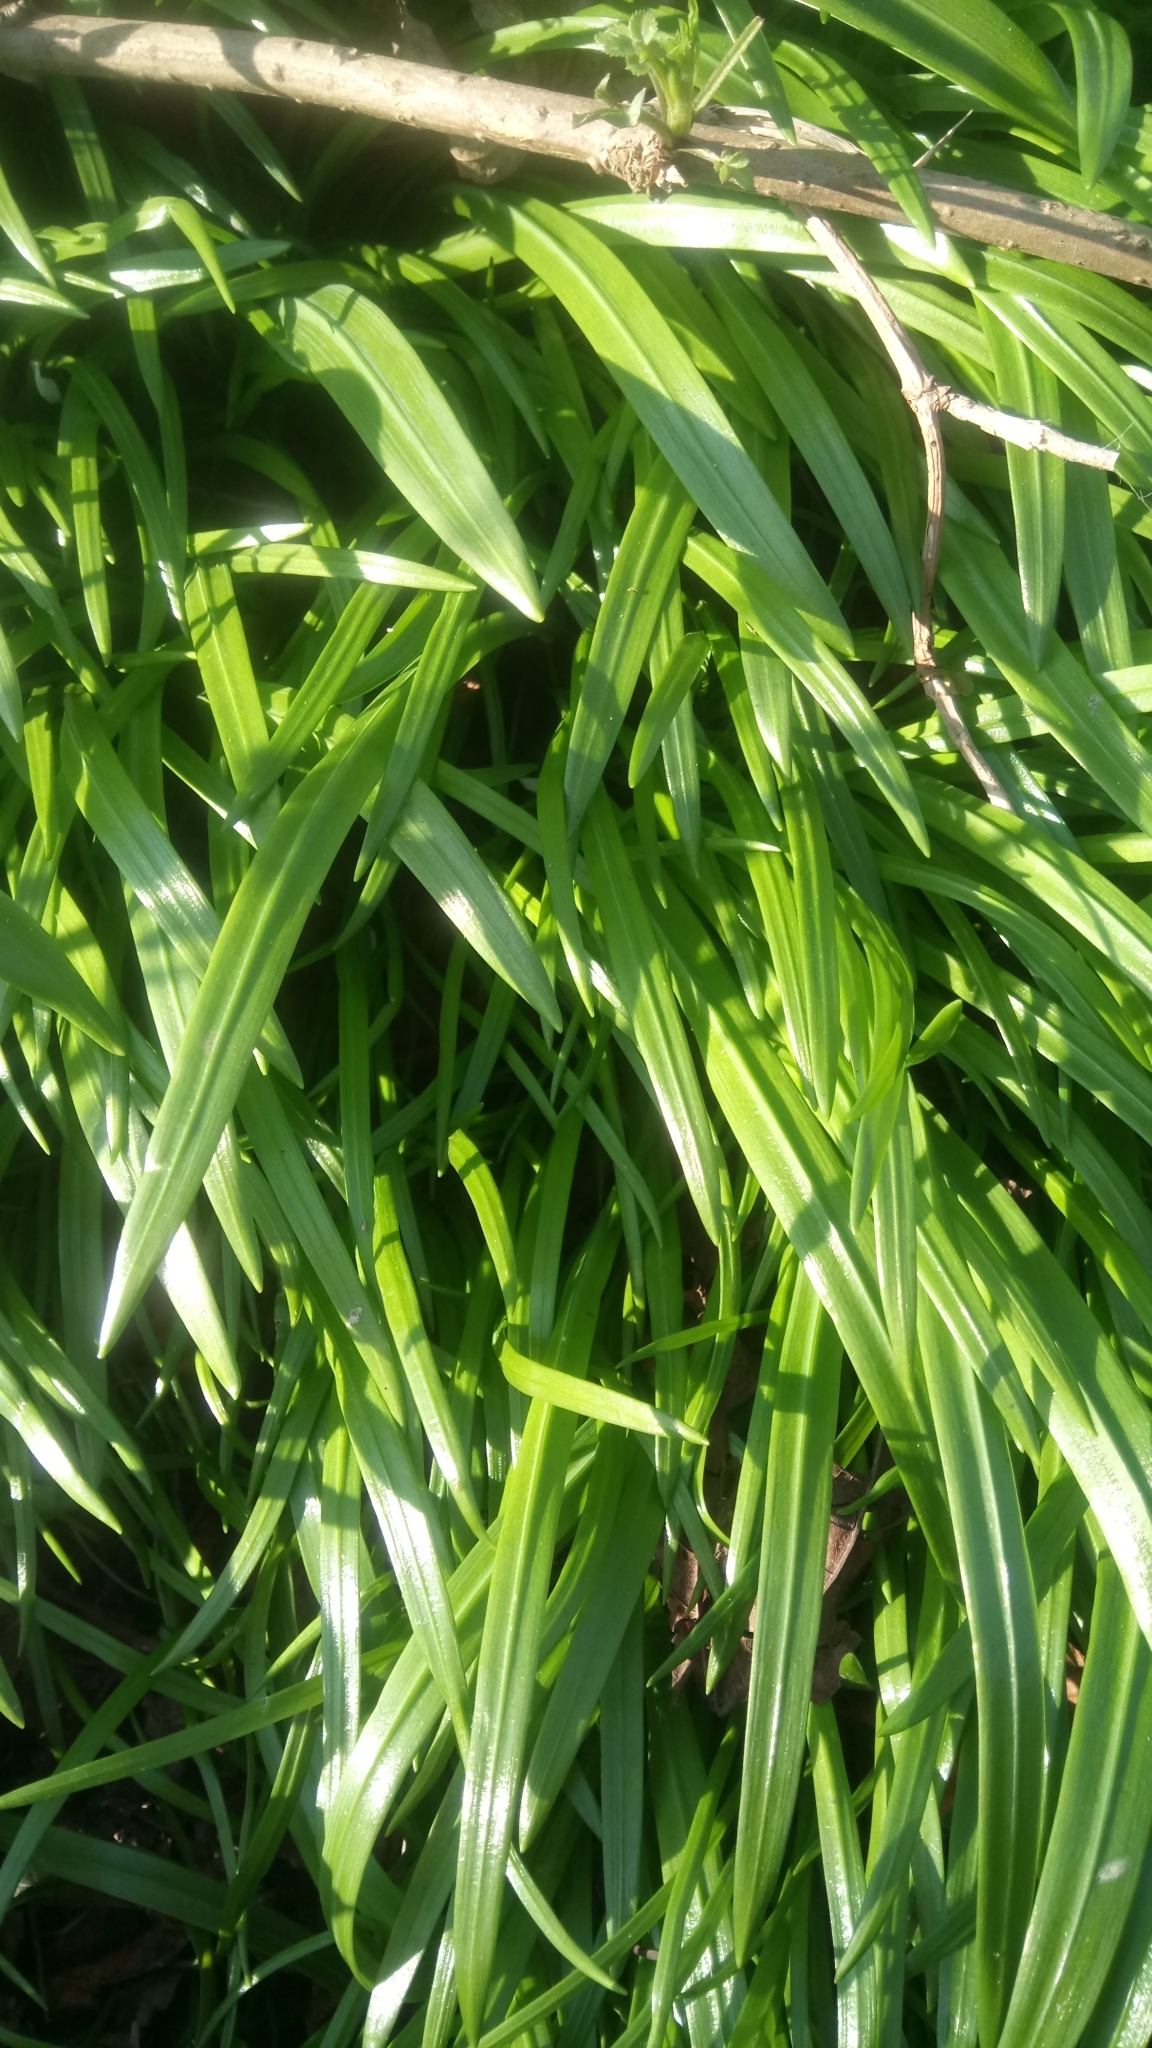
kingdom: Plantae
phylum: Tracheophyta
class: Liliopsida
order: Asparagales
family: Amaryllidaceae
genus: Allium
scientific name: Allium paradoxum
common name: Few-flowered garlic
